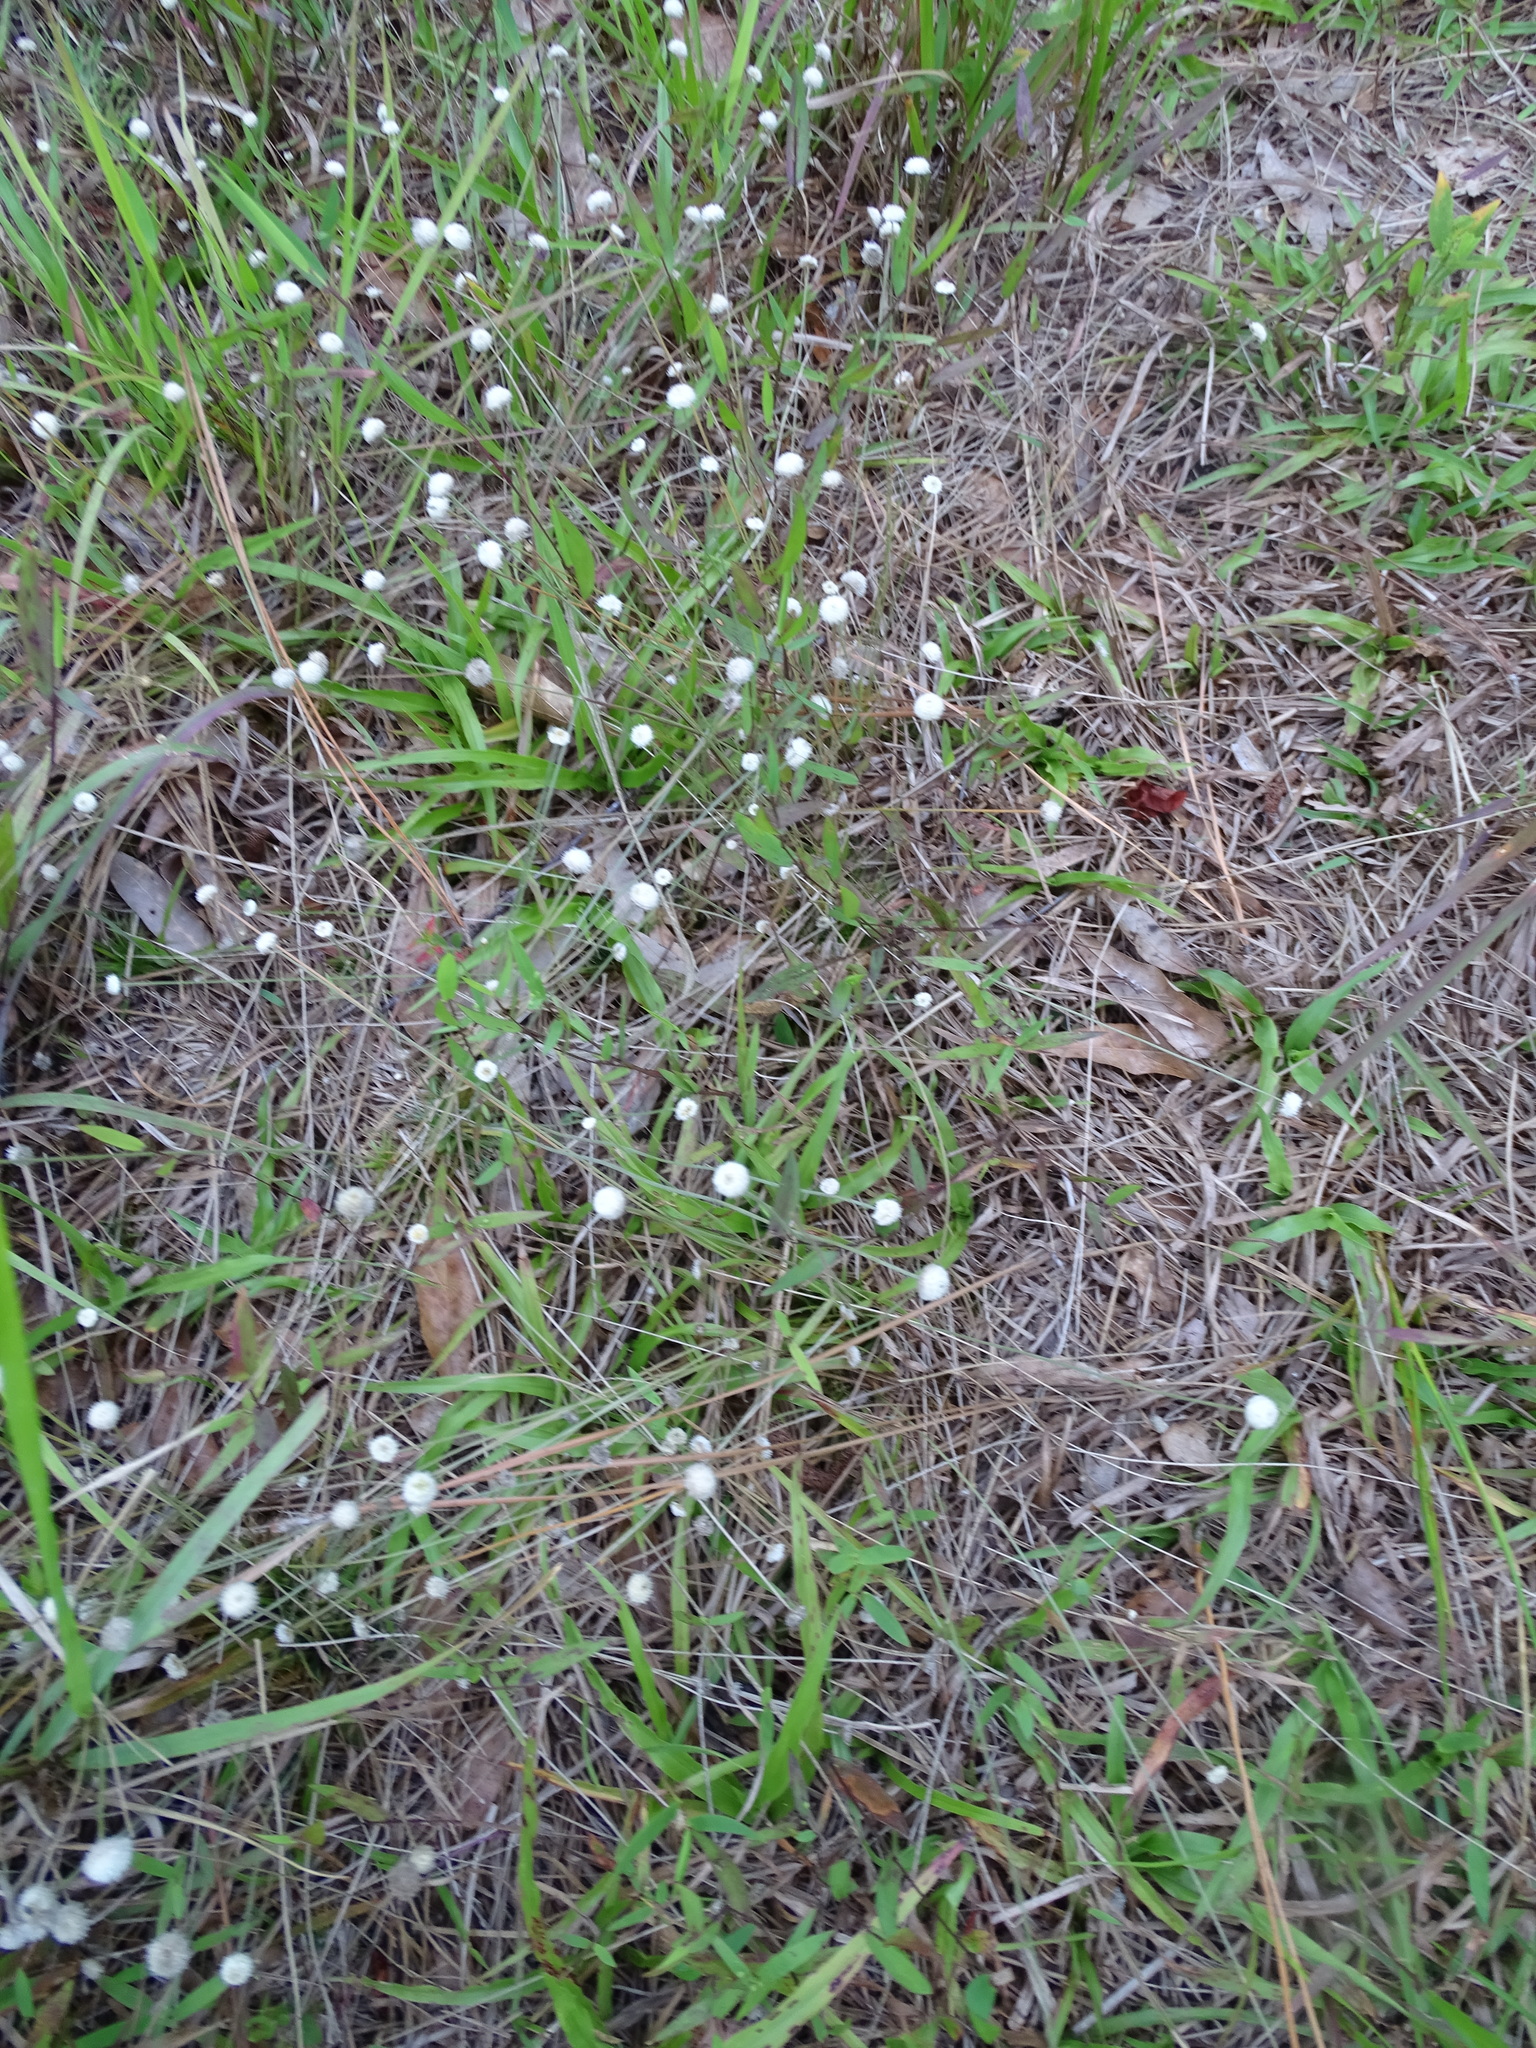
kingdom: Plantae
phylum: Tracheophyta
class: Liliopsida
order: Poales
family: Eriocaulaceae
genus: Syngonanthus
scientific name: Syngonanthus flavidulus
